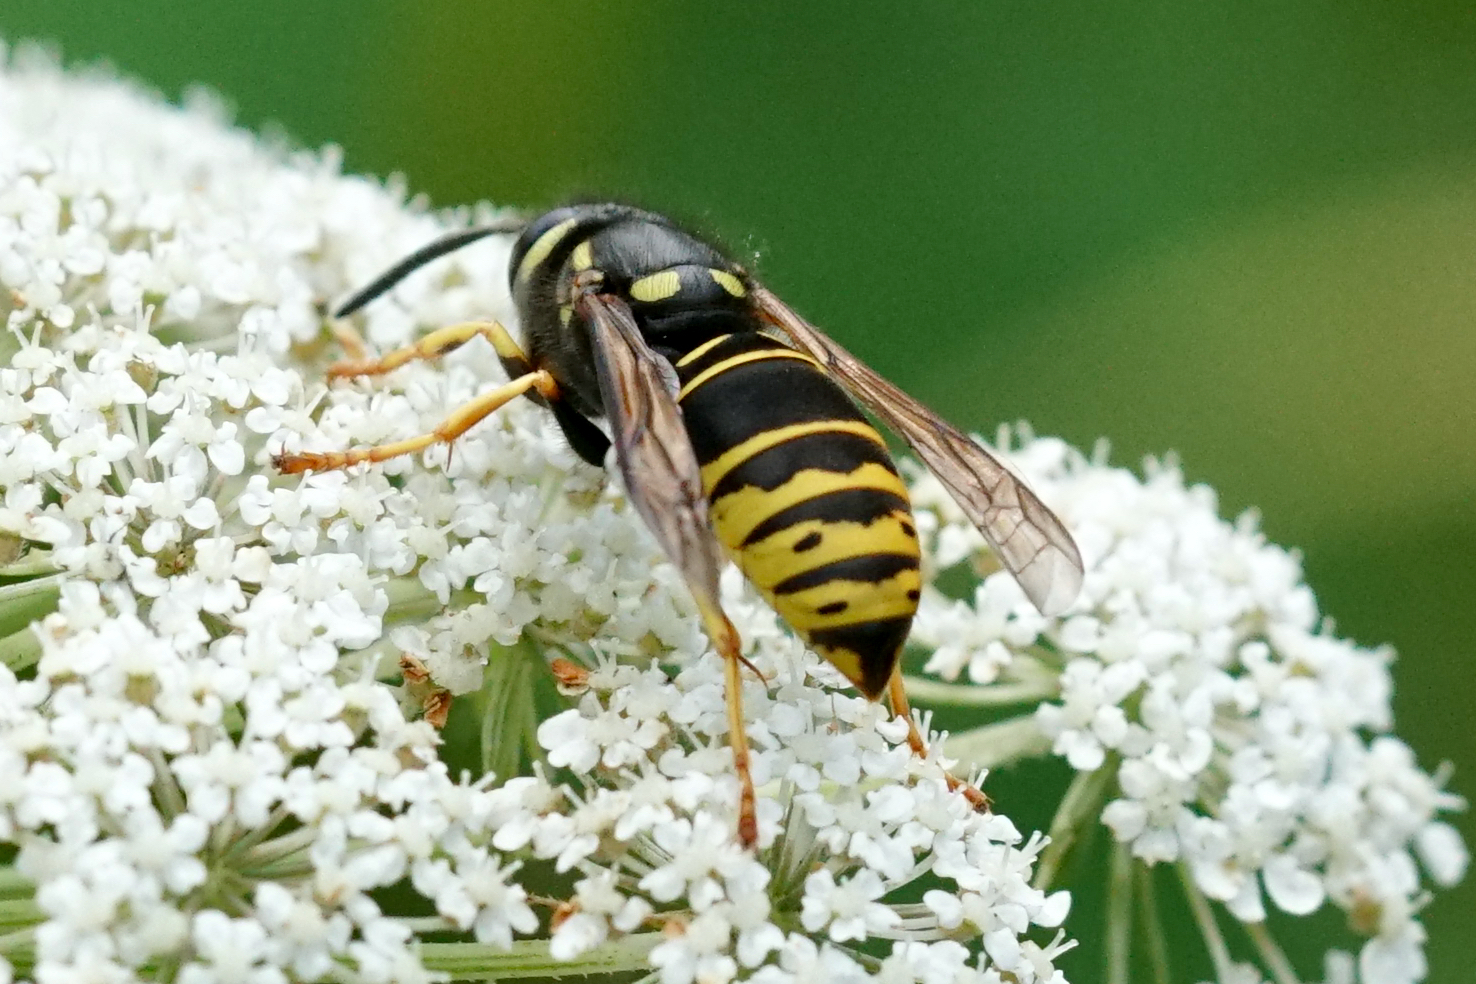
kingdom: Animalia
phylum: Arthropoda
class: Insecta
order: Hymenoptera
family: Vespidae
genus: Vespula
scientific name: Vespula vidua
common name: Widow yellowjacket
